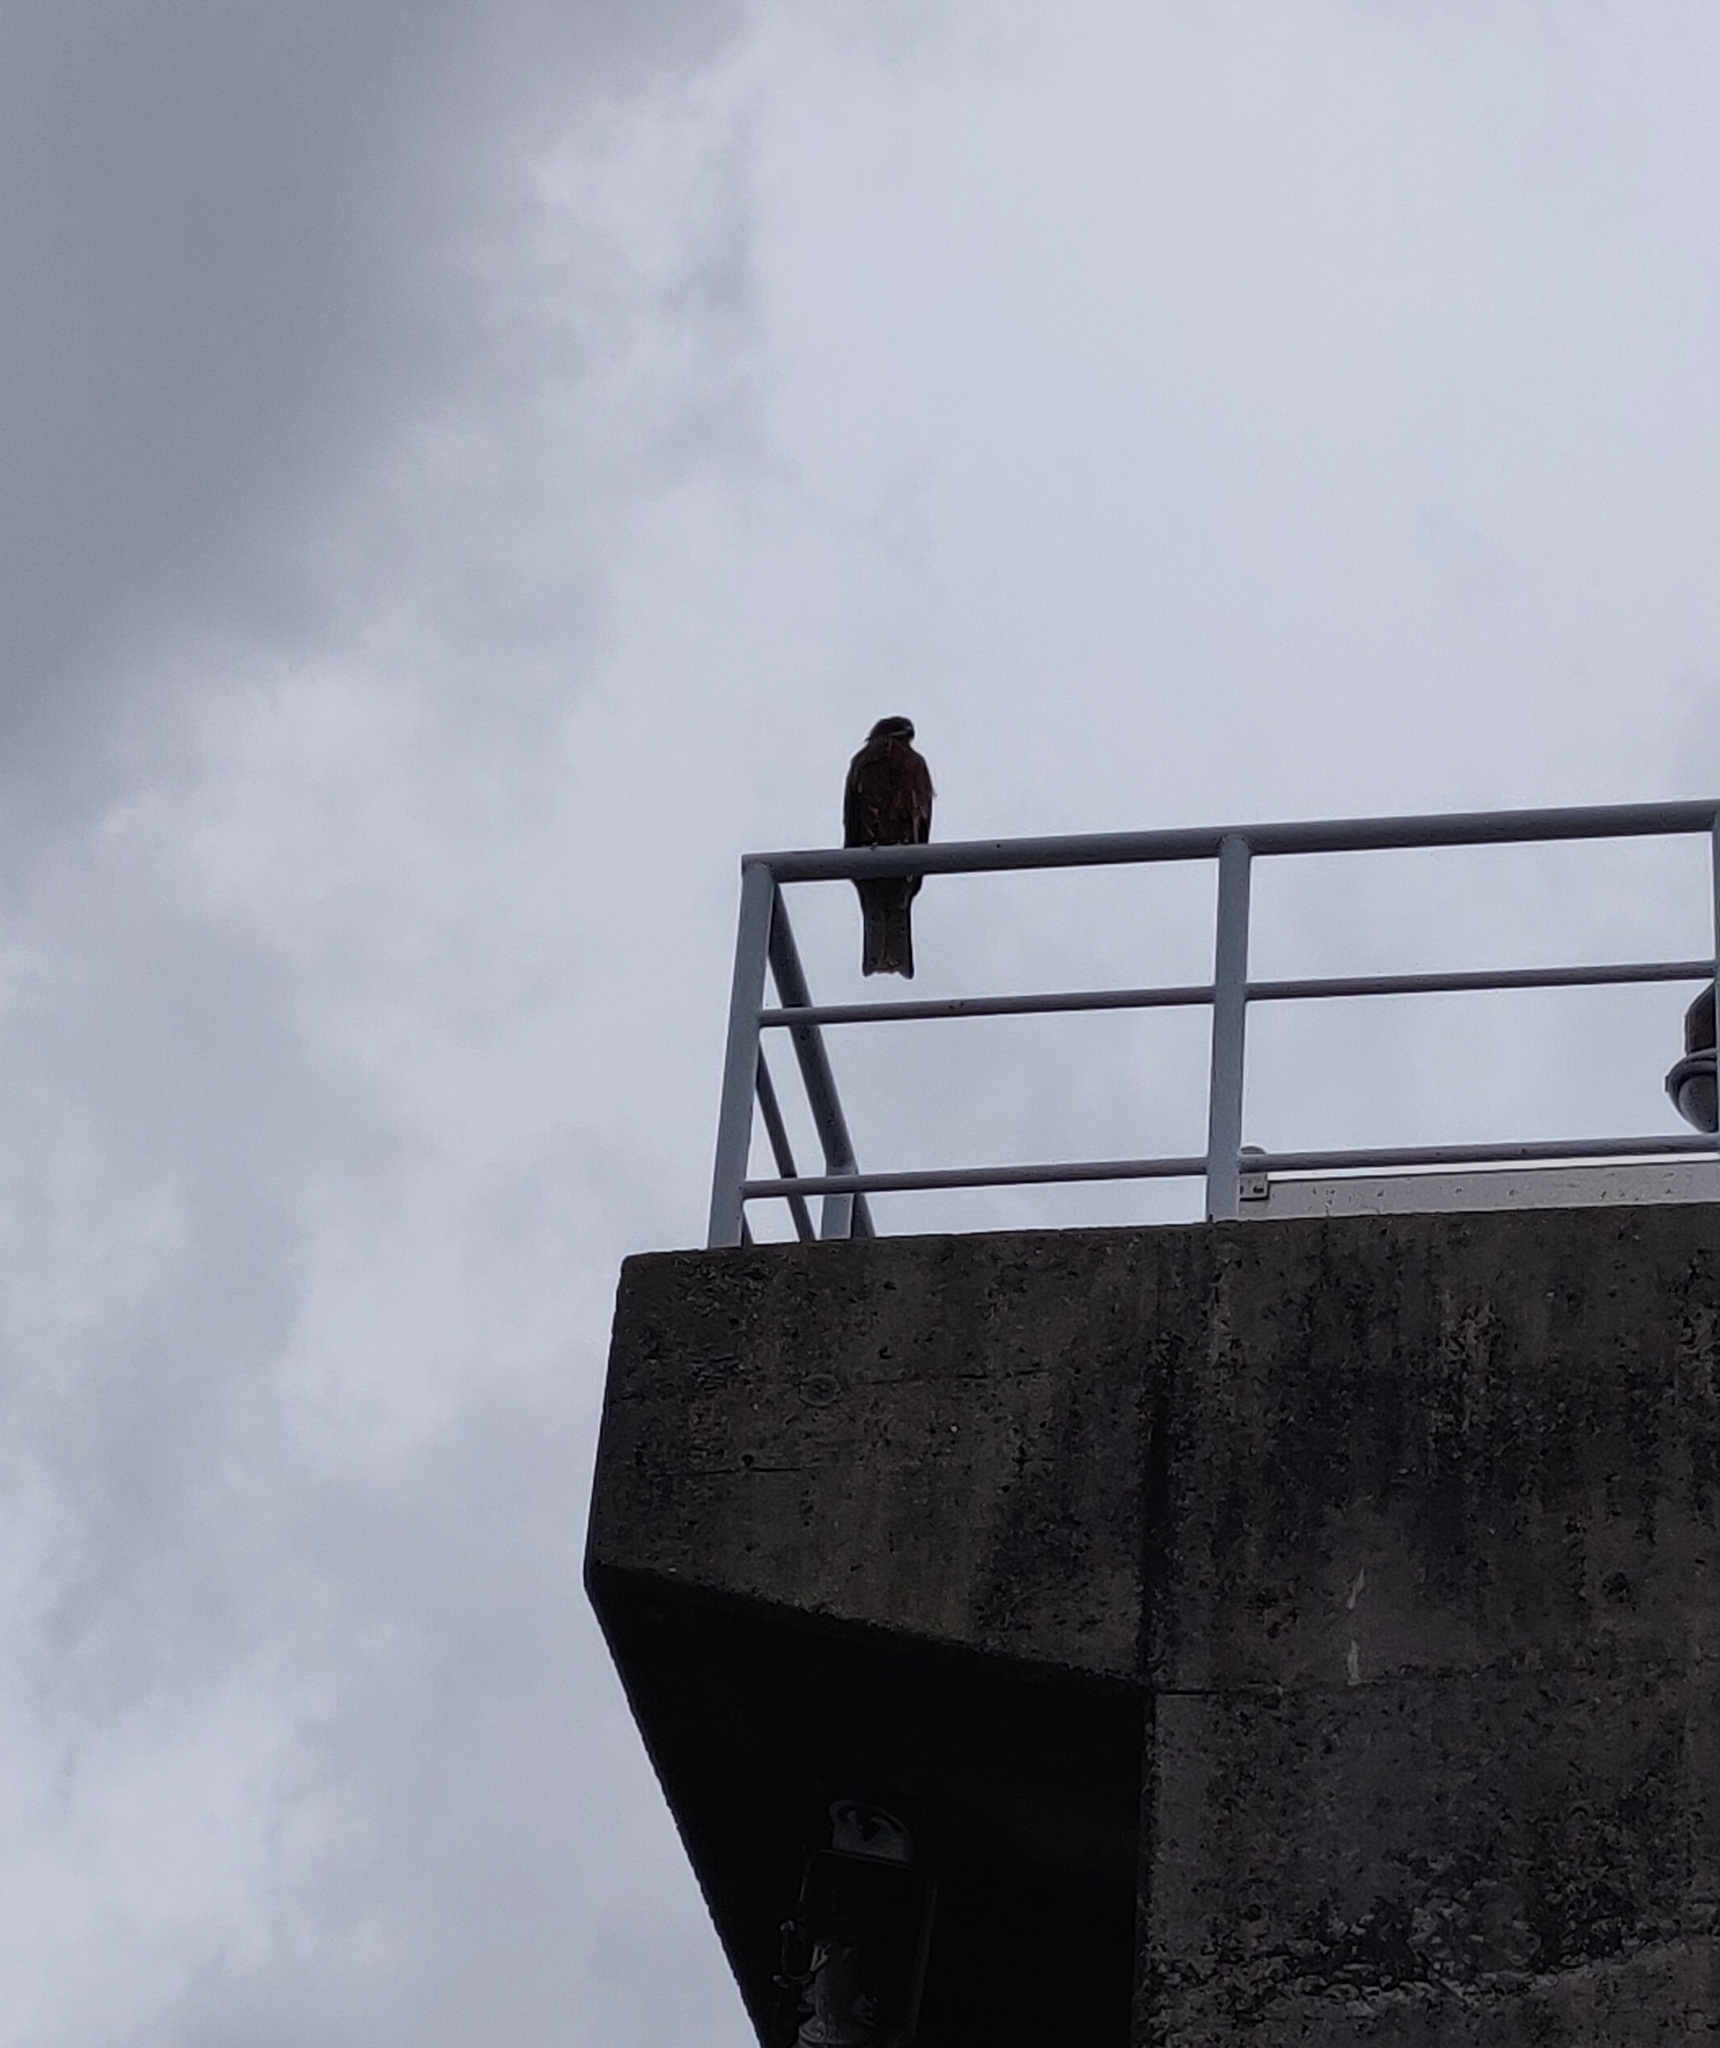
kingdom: Animalia
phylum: Chordata
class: Aves
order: Accipitriformes
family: Accipitridae
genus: Milvus
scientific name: Milvus migrans
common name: Black kite
